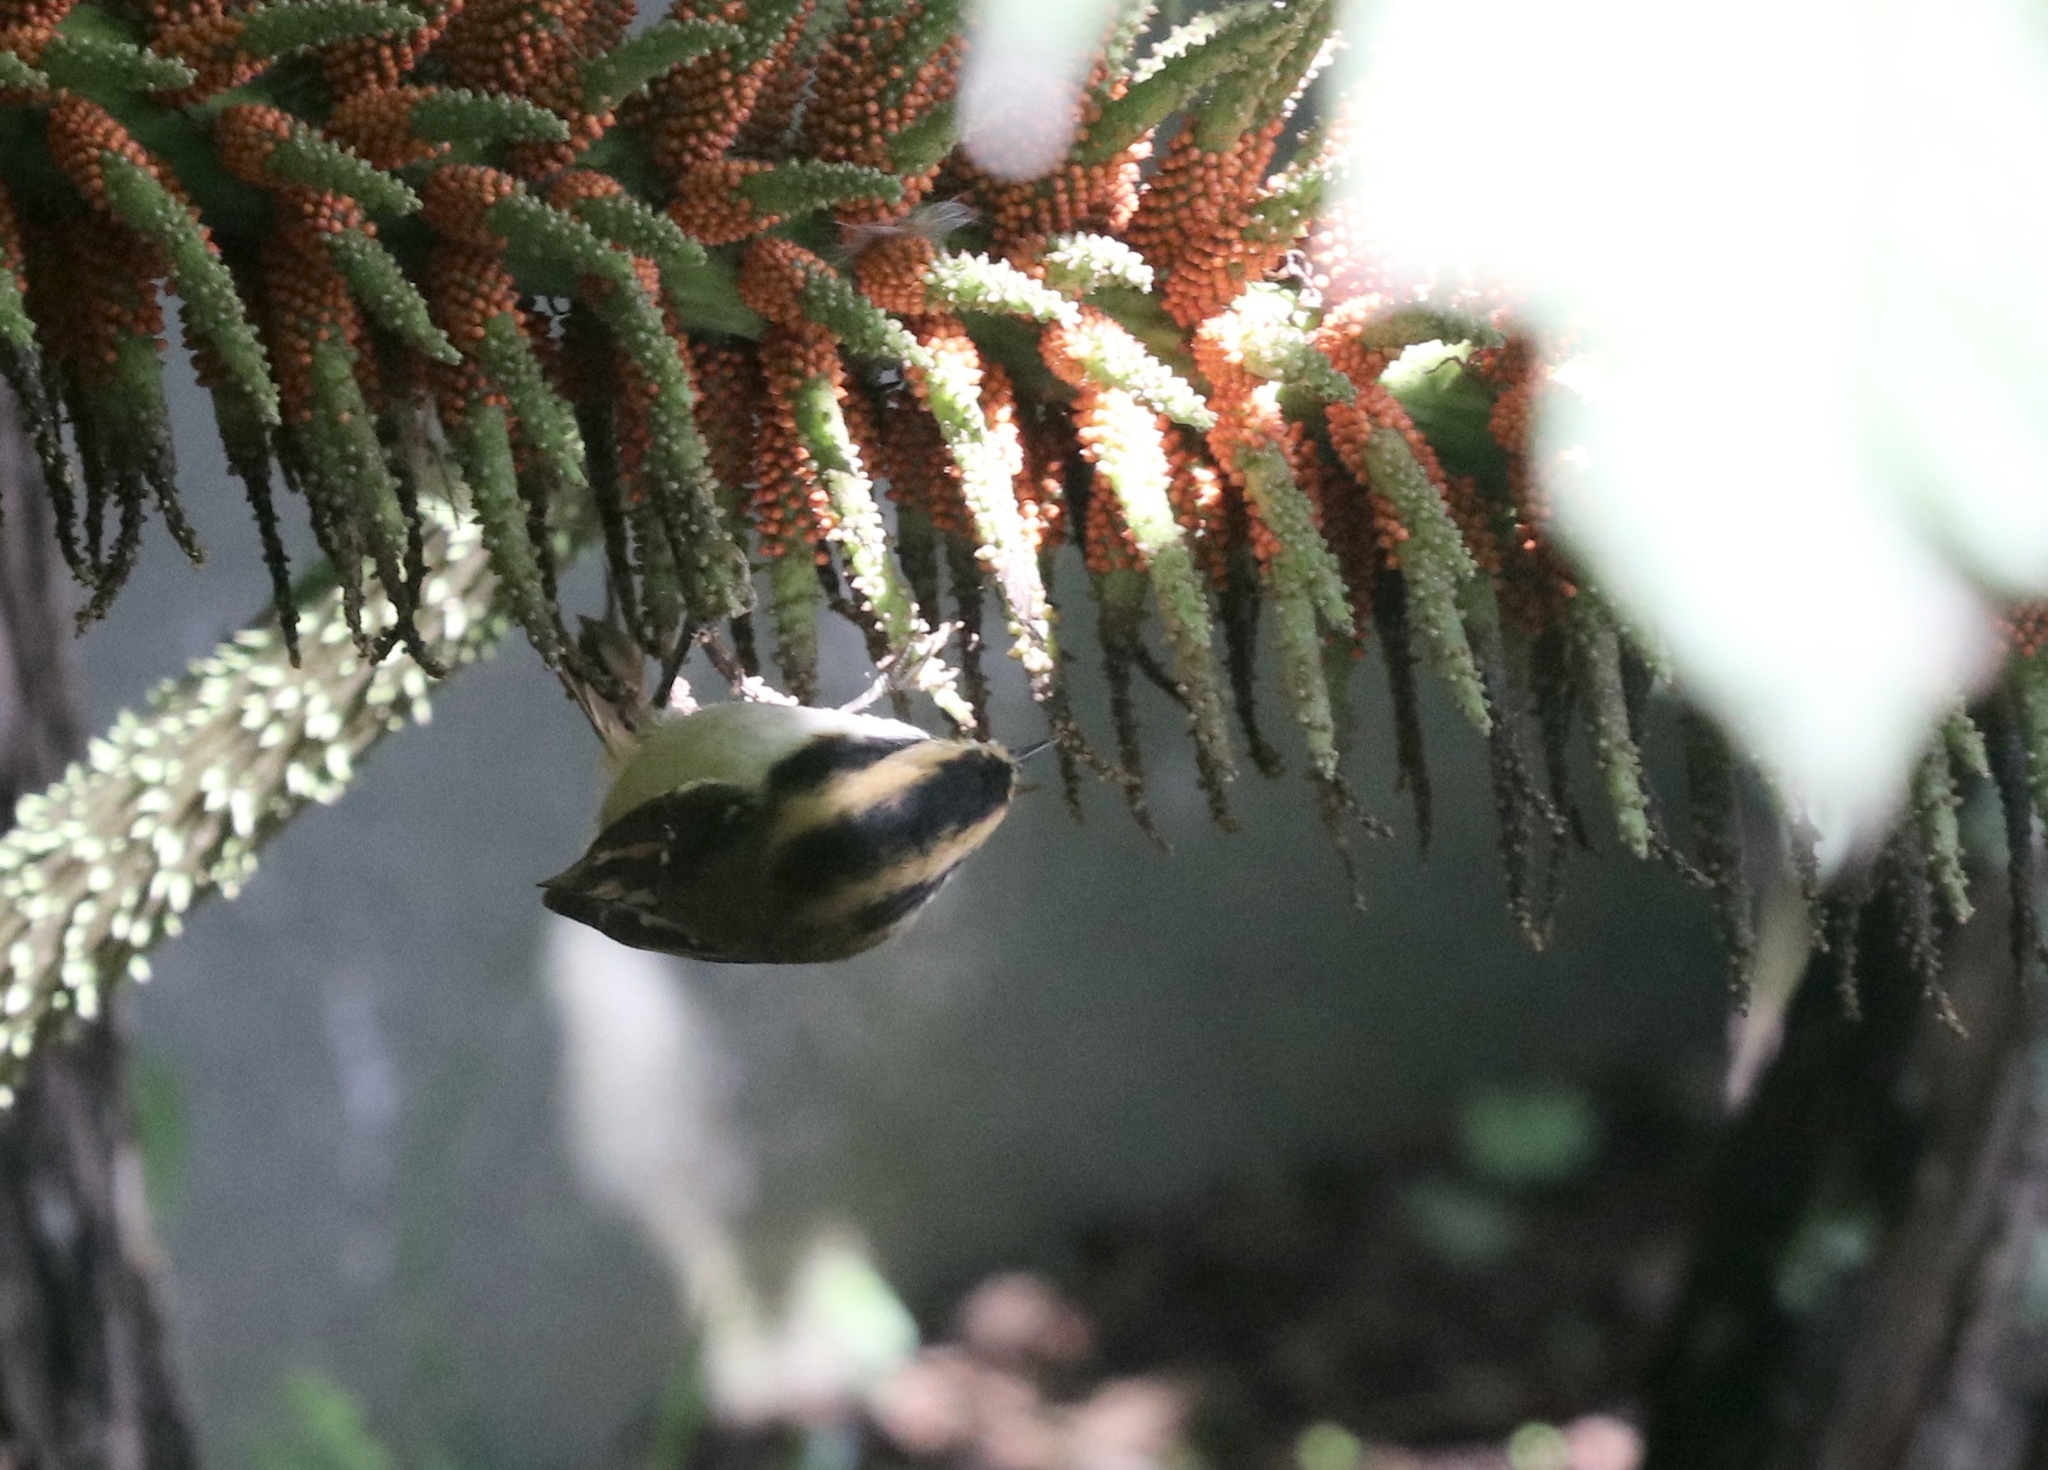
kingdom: Animalia
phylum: Chordata
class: Aves
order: Passeriformes
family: Furnariidae
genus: Aphrastura
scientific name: Aphrastura spinicauda
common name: Thorn-tailed rayadito
